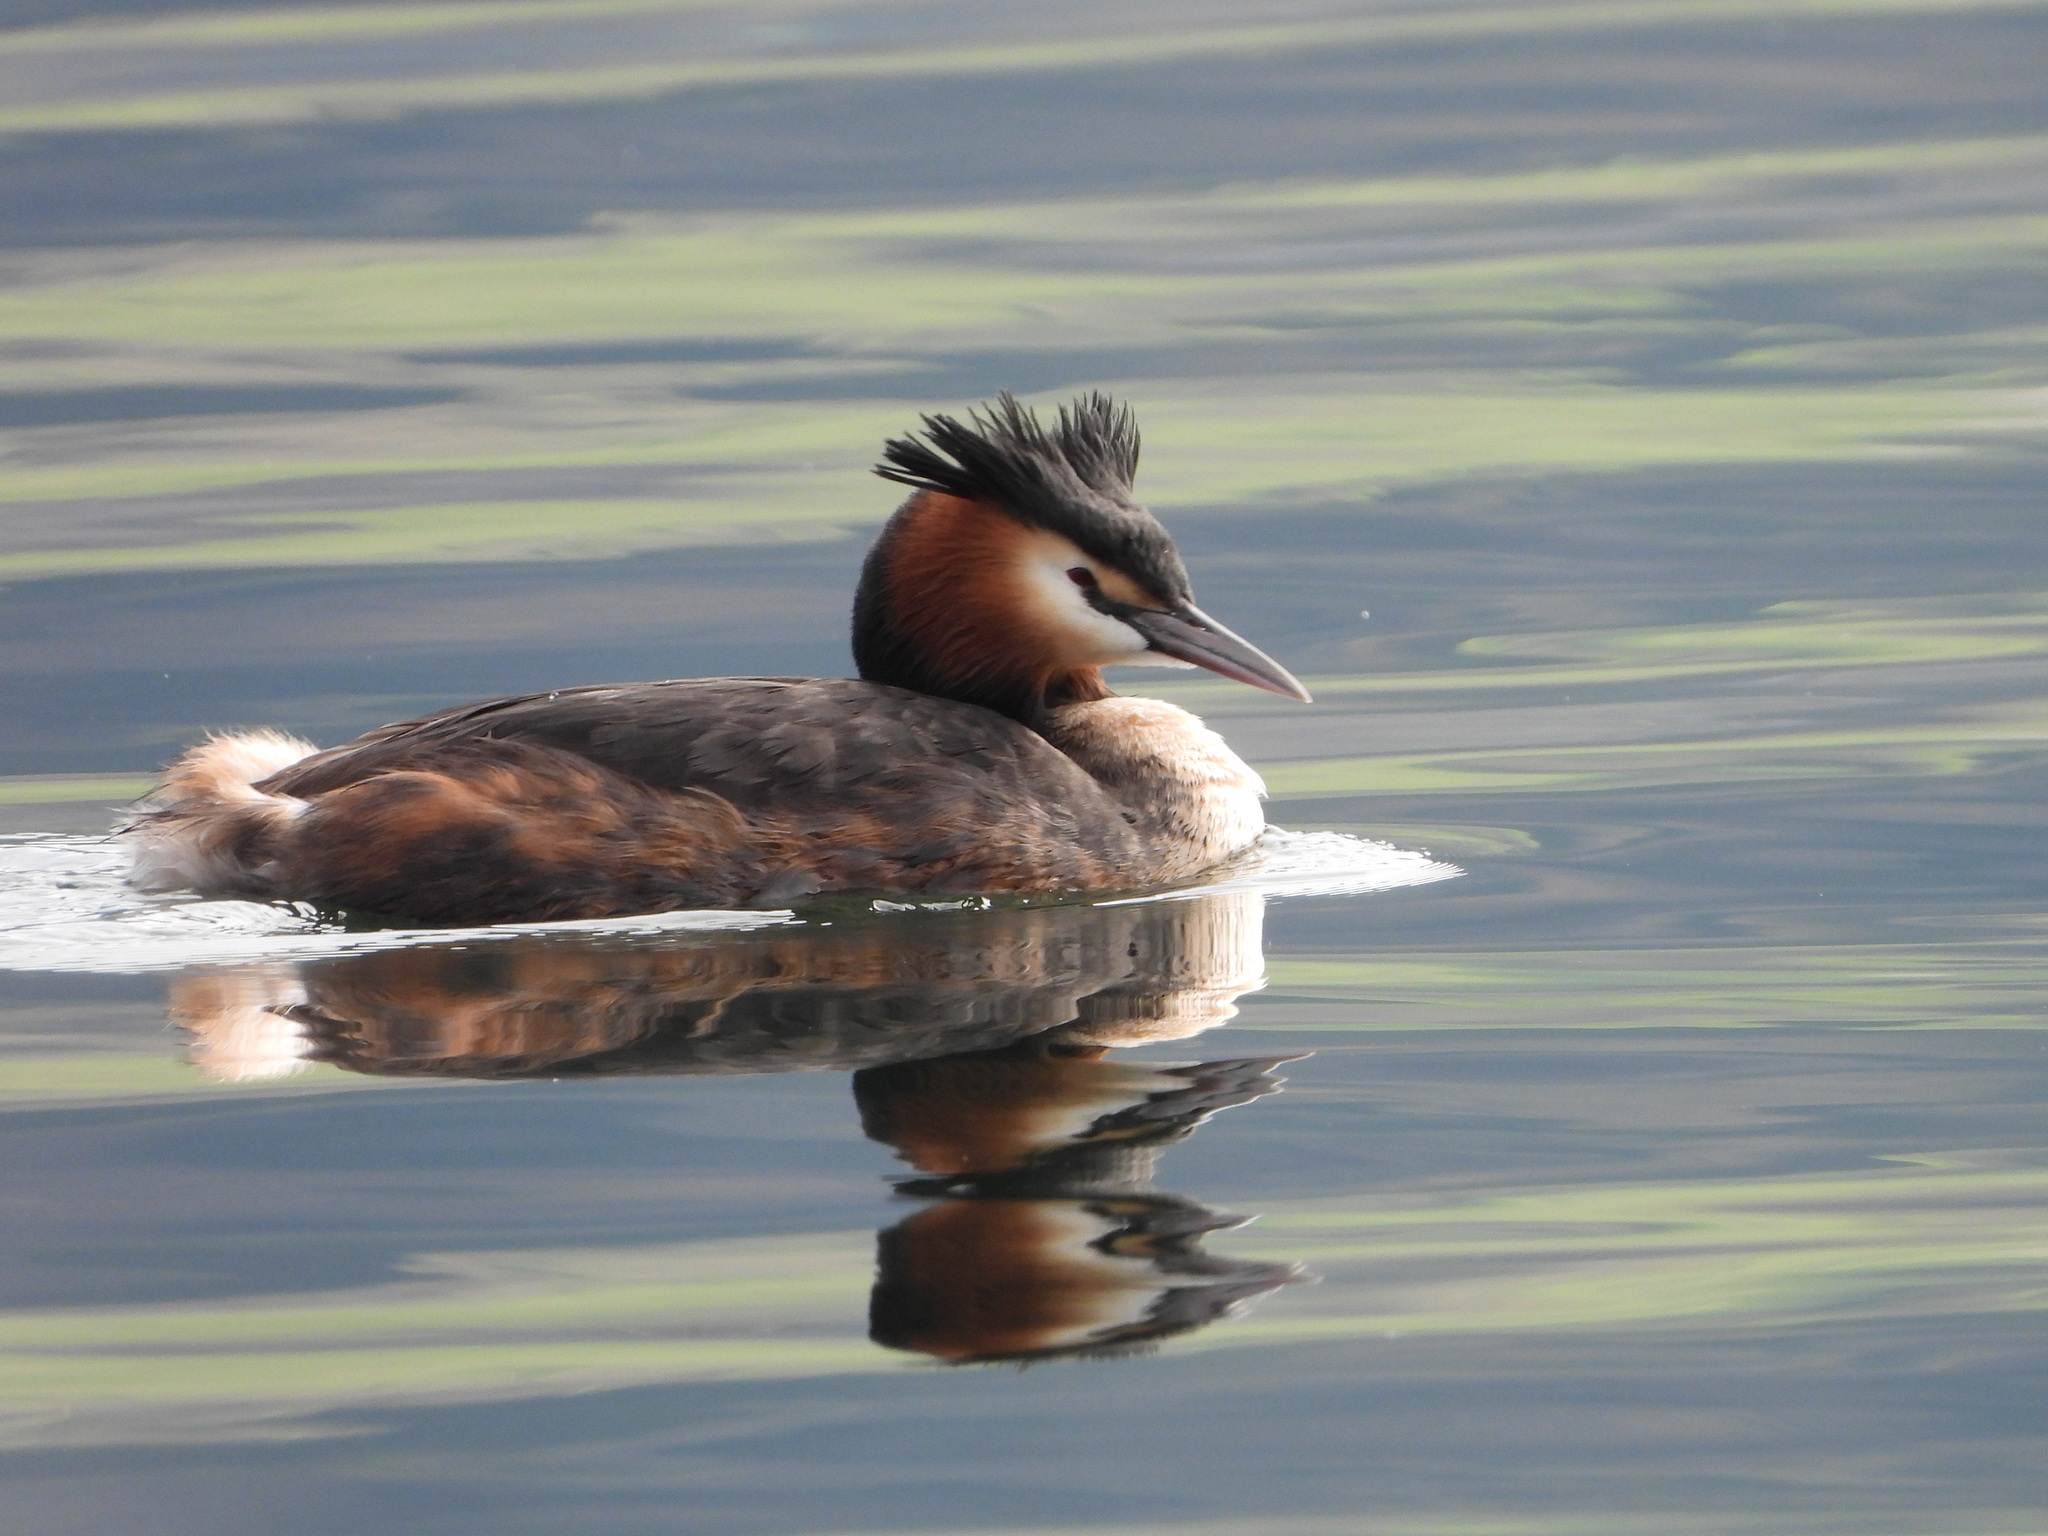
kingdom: Animalia
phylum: Chordata
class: Aves
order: Podicipediformes
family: Podicipedidae
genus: Podiceps
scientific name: Podiceps cristatus
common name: Great crested grebe
